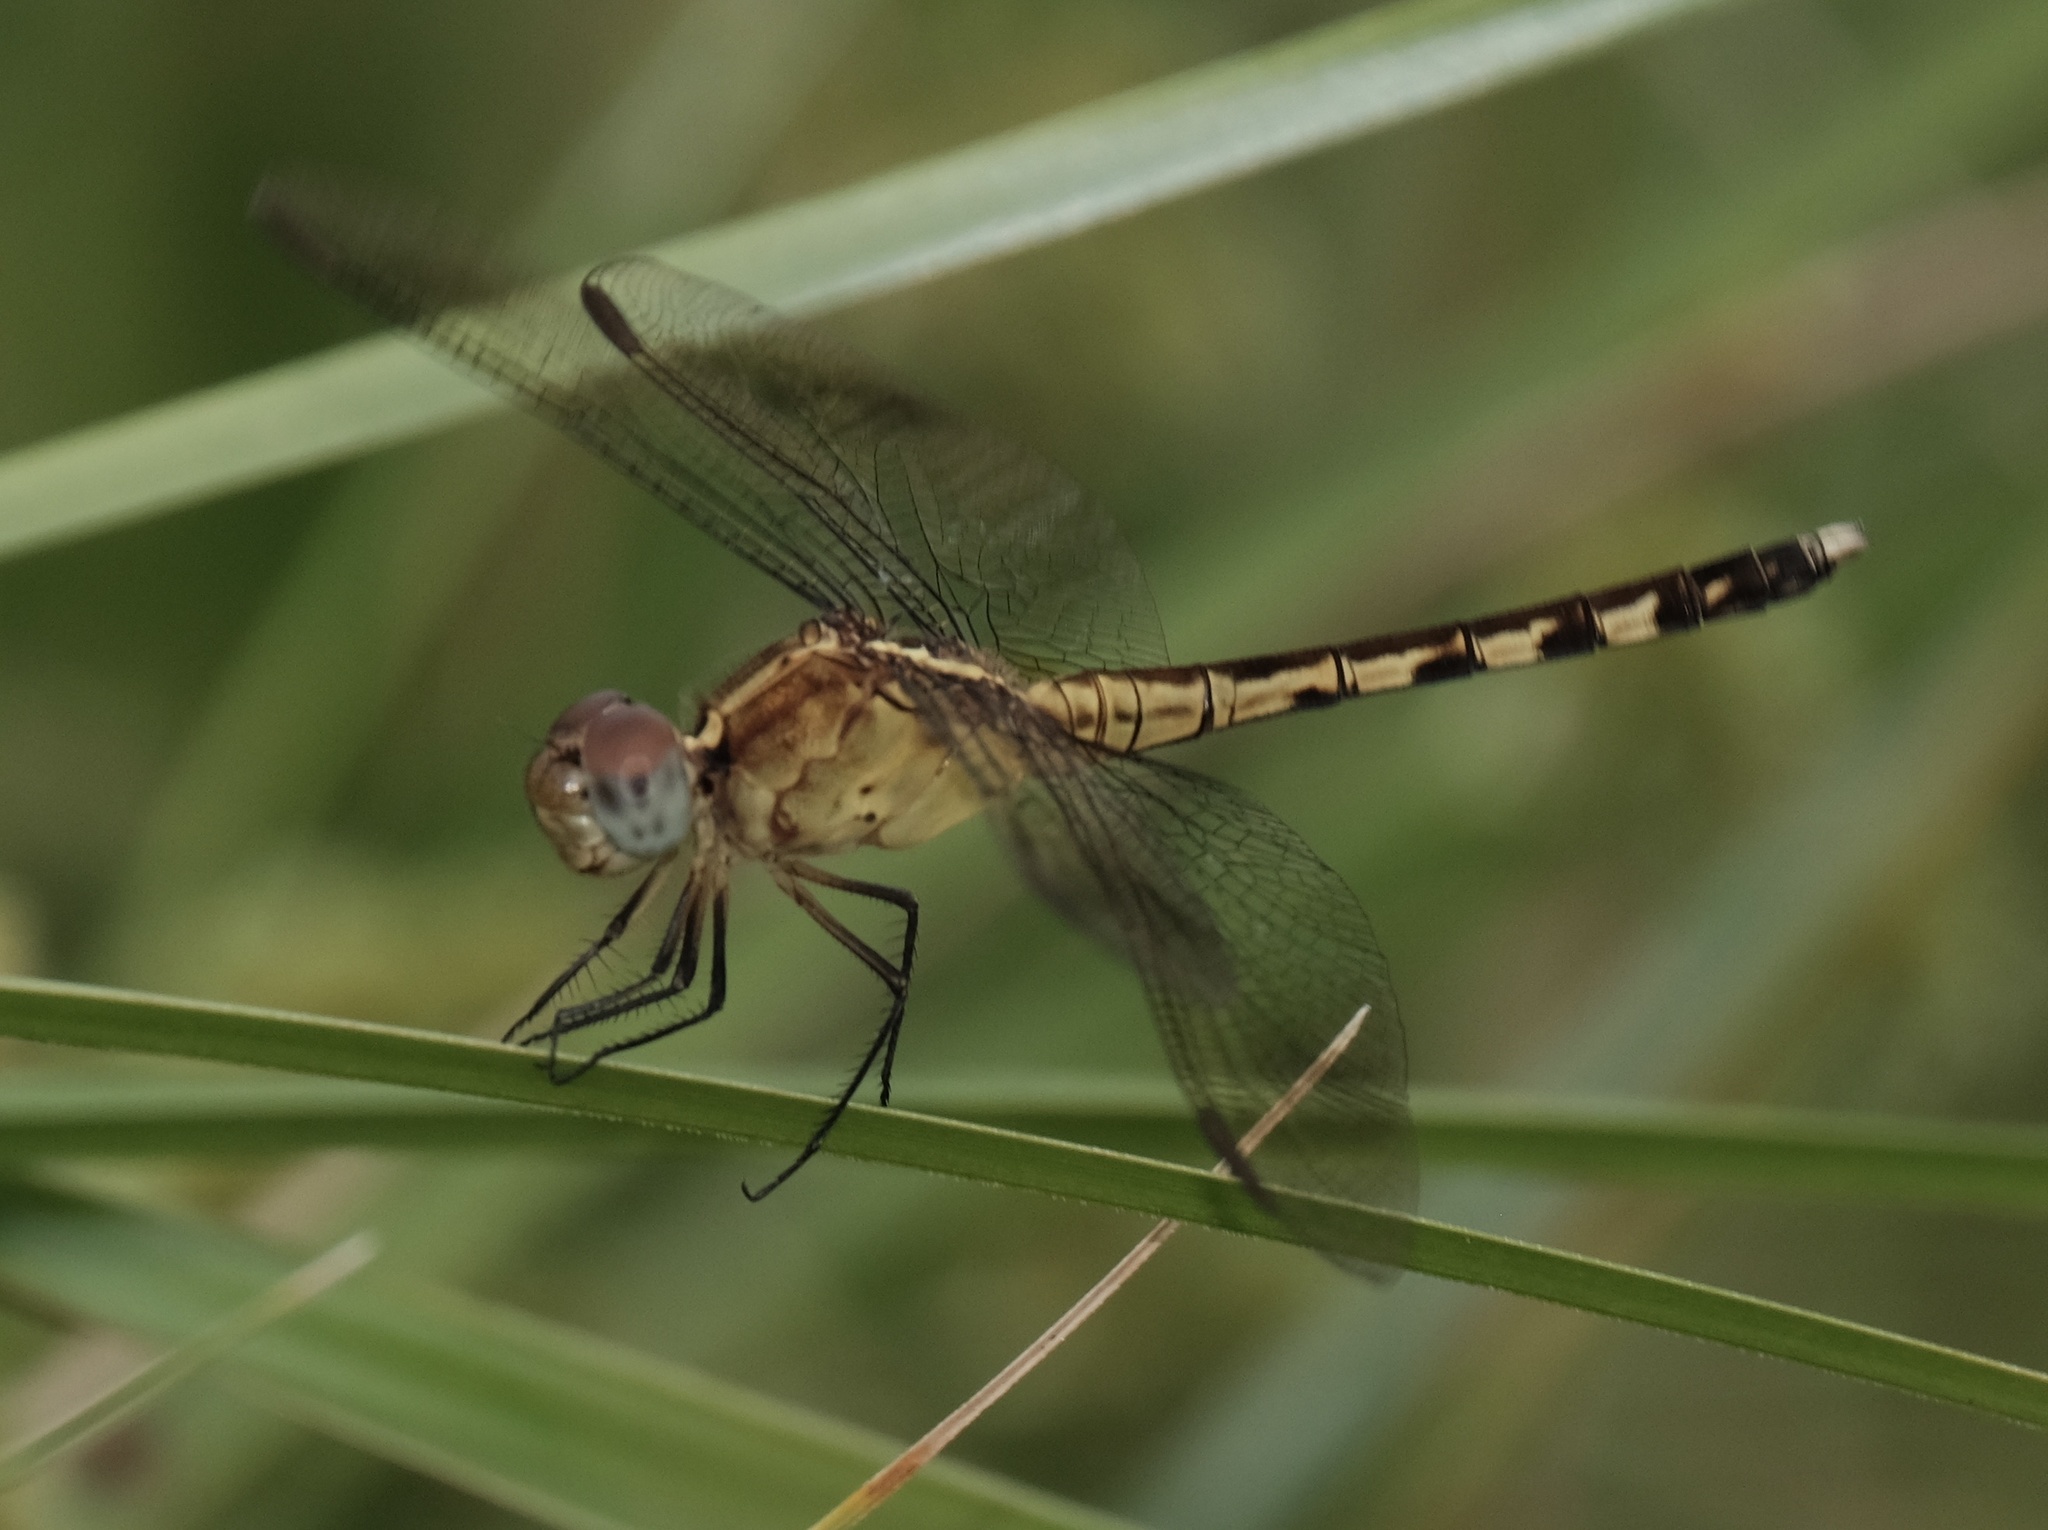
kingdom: Animalia
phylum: Arthropoda
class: Insecta
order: Odonata
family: Libellulidae
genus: Erythrodiplax
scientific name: Erythrodiplax umbrata
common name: Band-winged dragonlet
